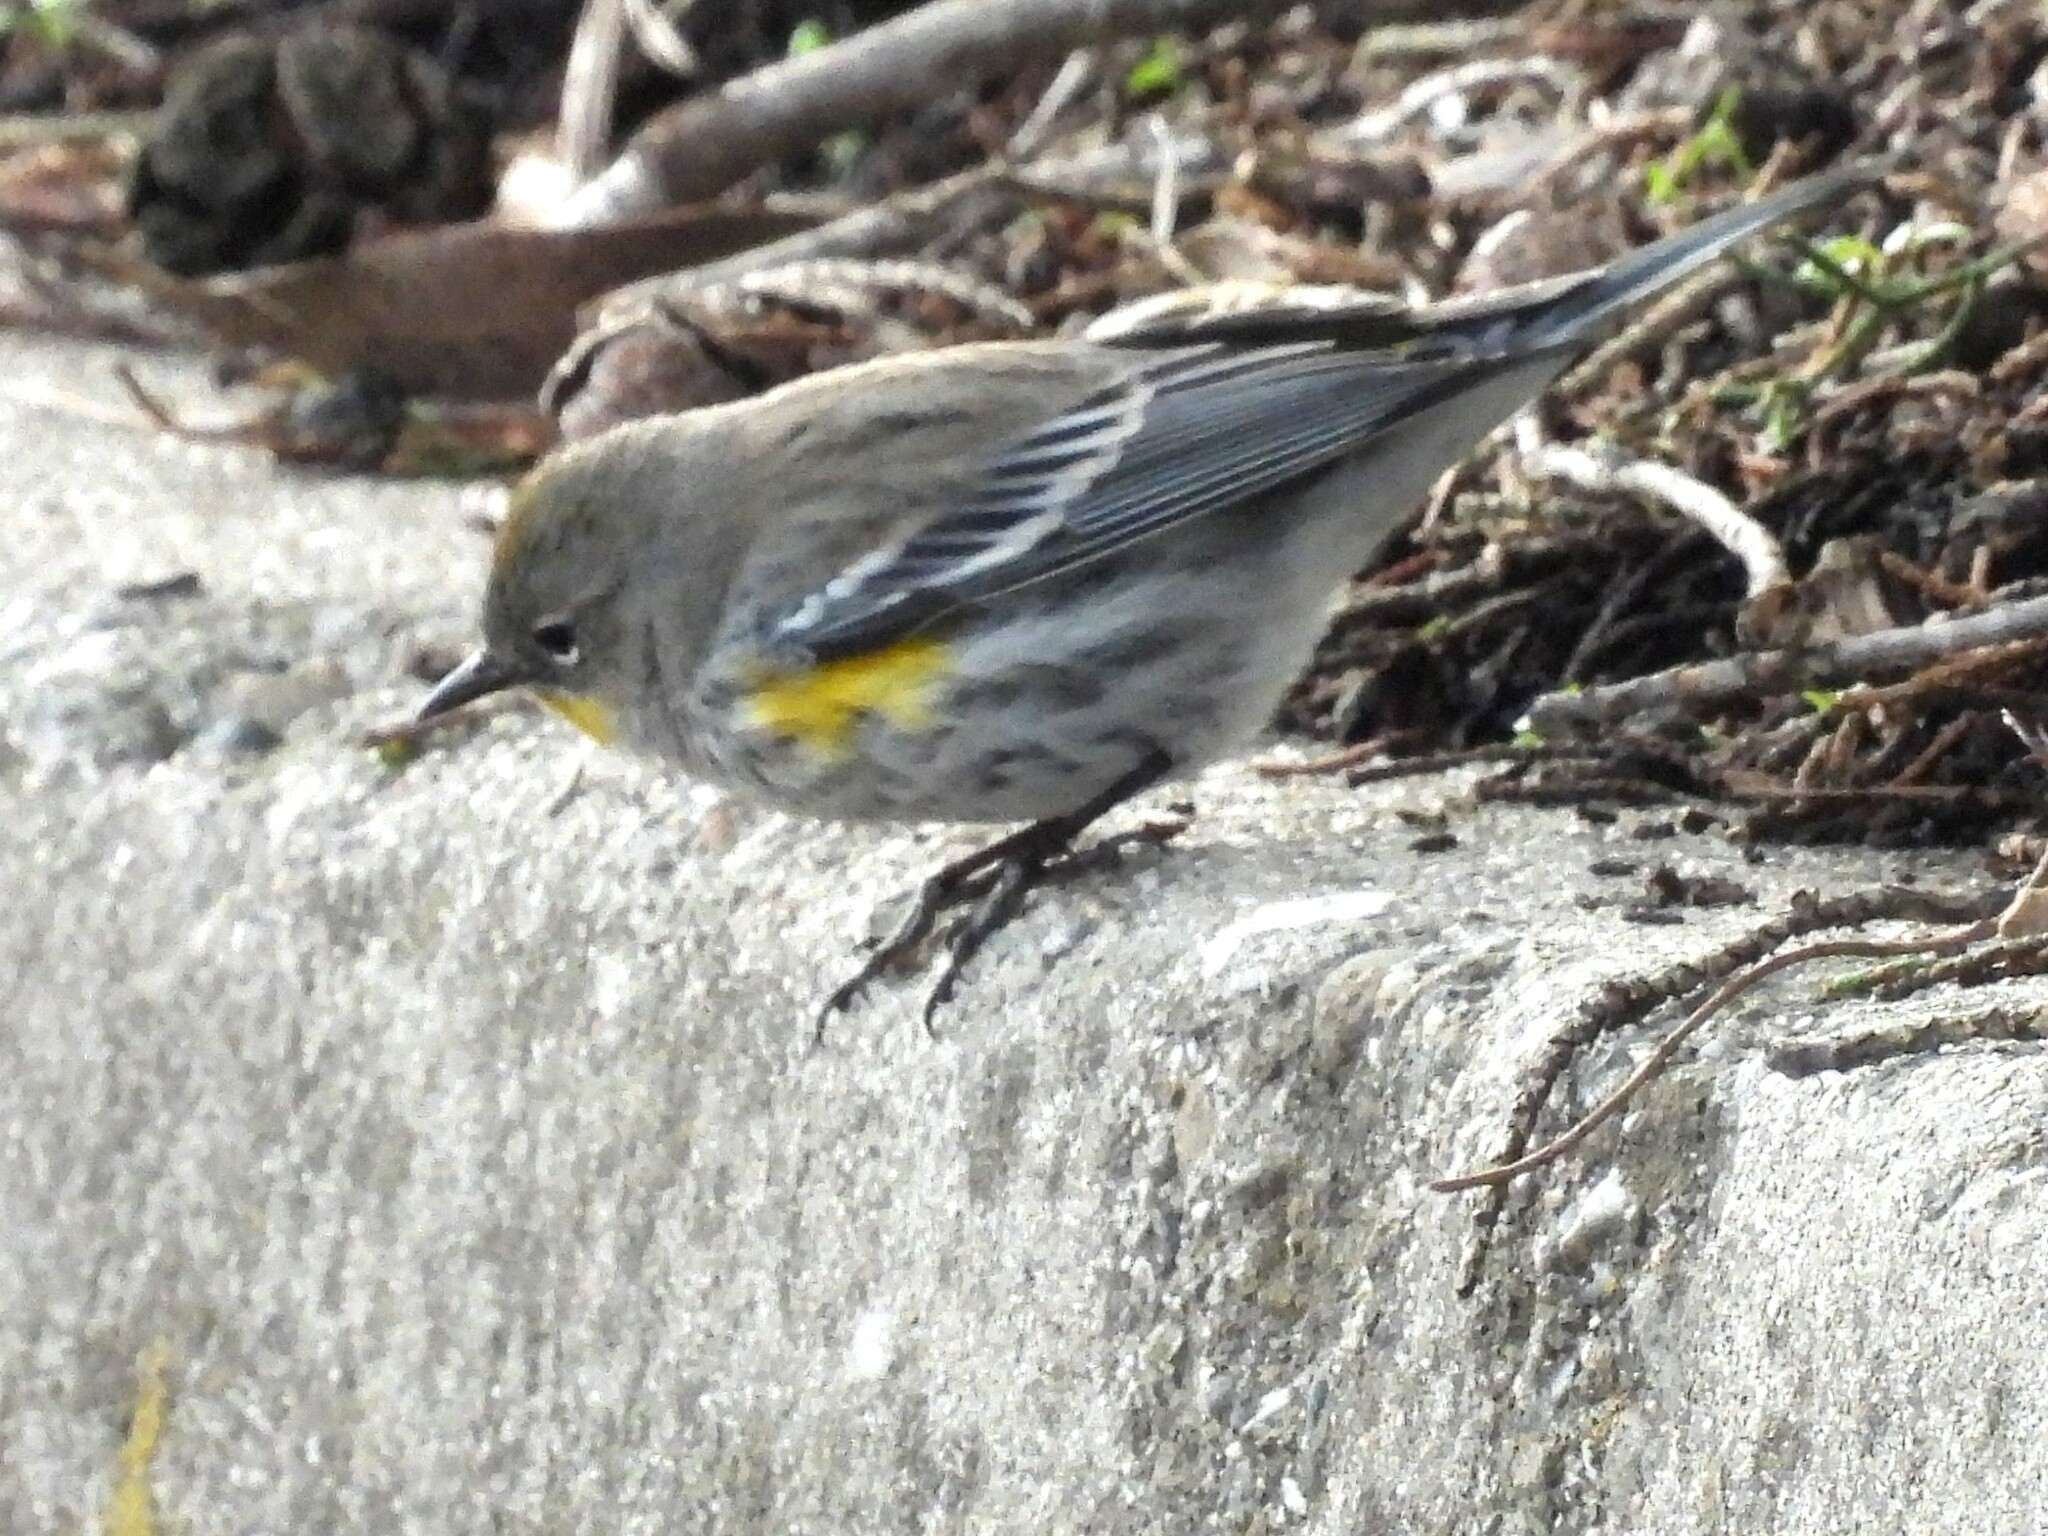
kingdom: Animalia
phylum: Chordata
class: Aves
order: Passeriformes
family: Parulidae
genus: Setophaga
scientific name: Setophaga auduboni
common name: Audubon's warbler
